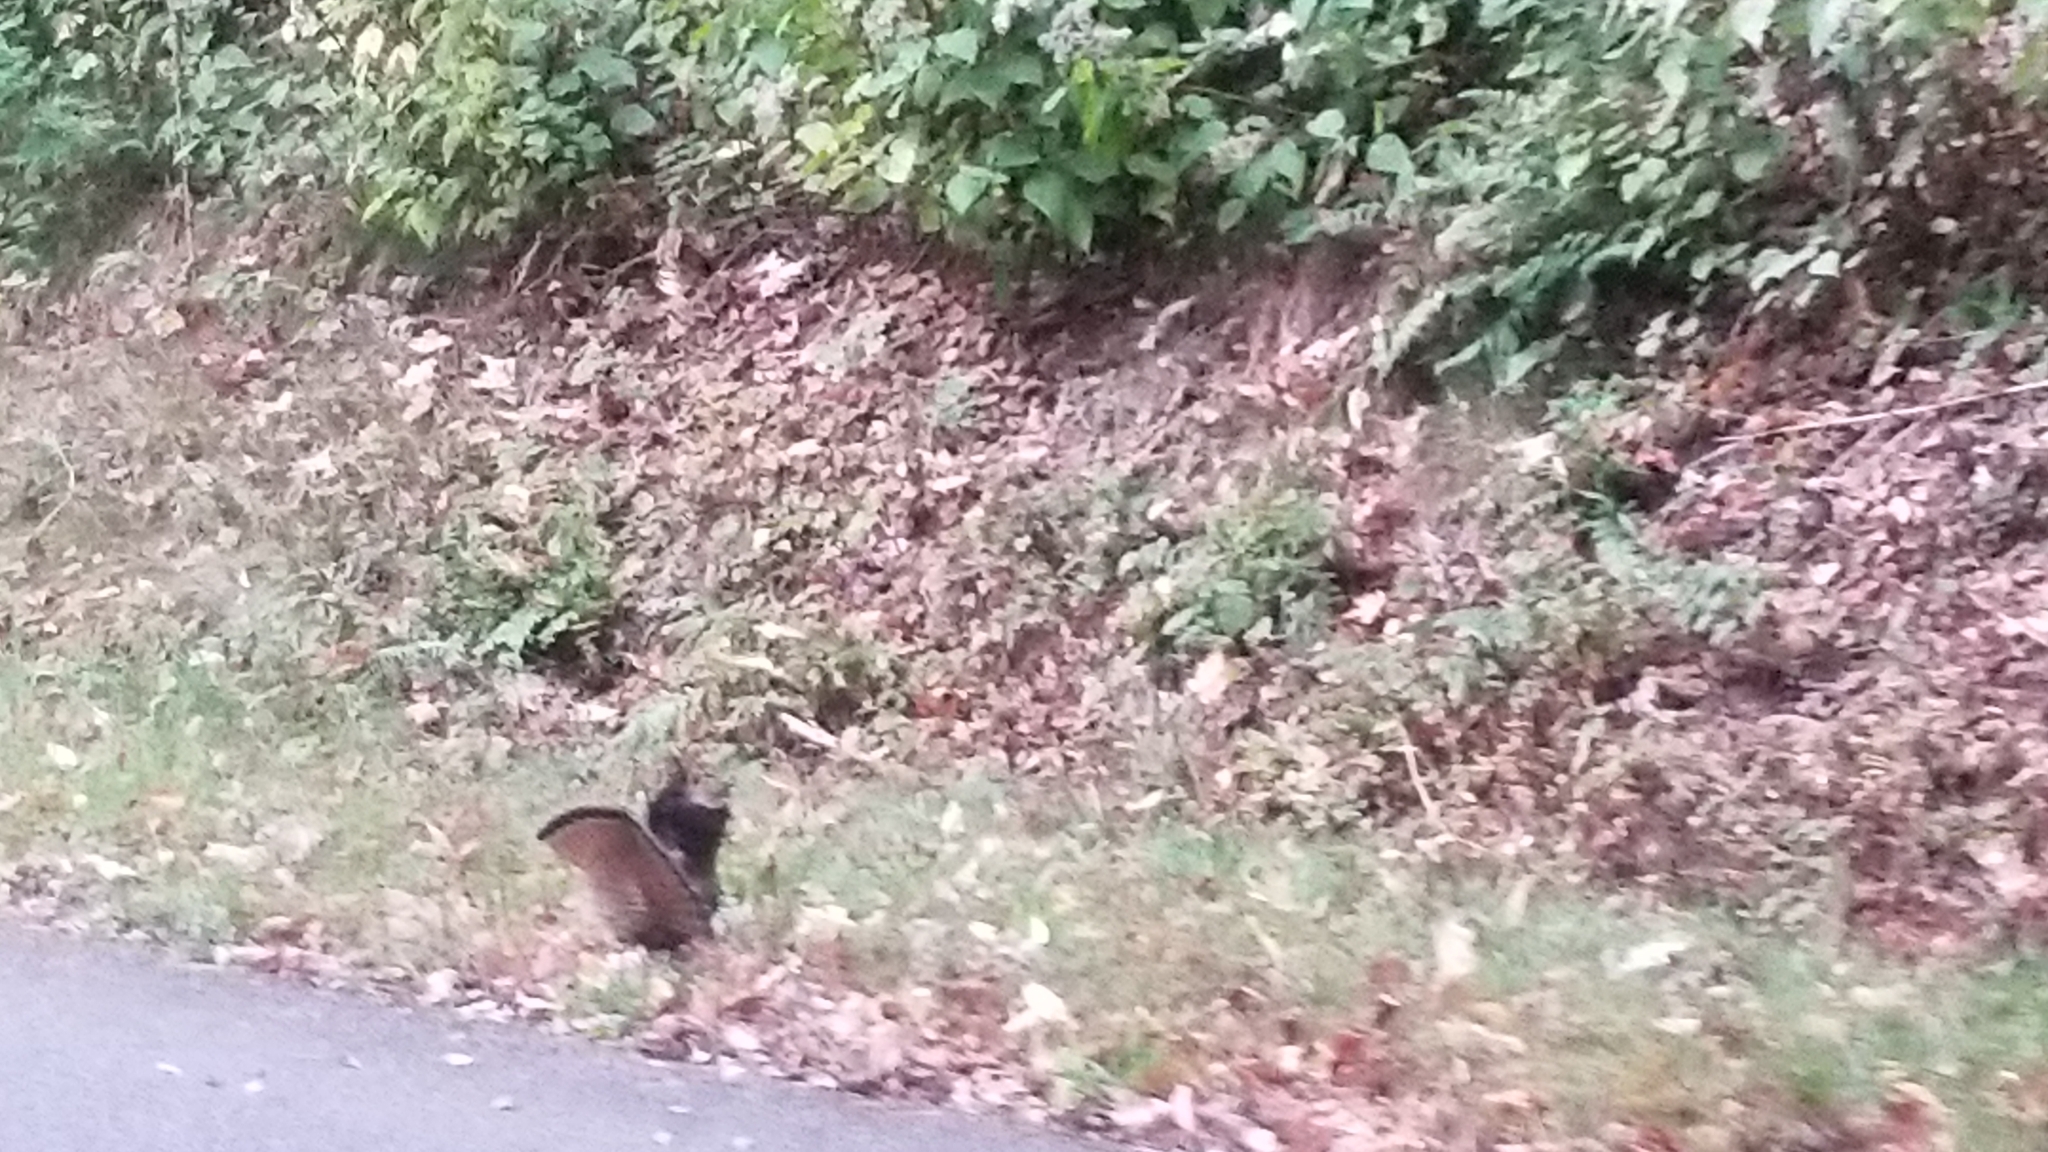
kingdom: Animalia
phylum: Chordata
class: Aves
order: Galliformes
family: Phasianidae
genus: Bonasa
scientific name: Bonasa umbellus
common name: Ruffed grouse
